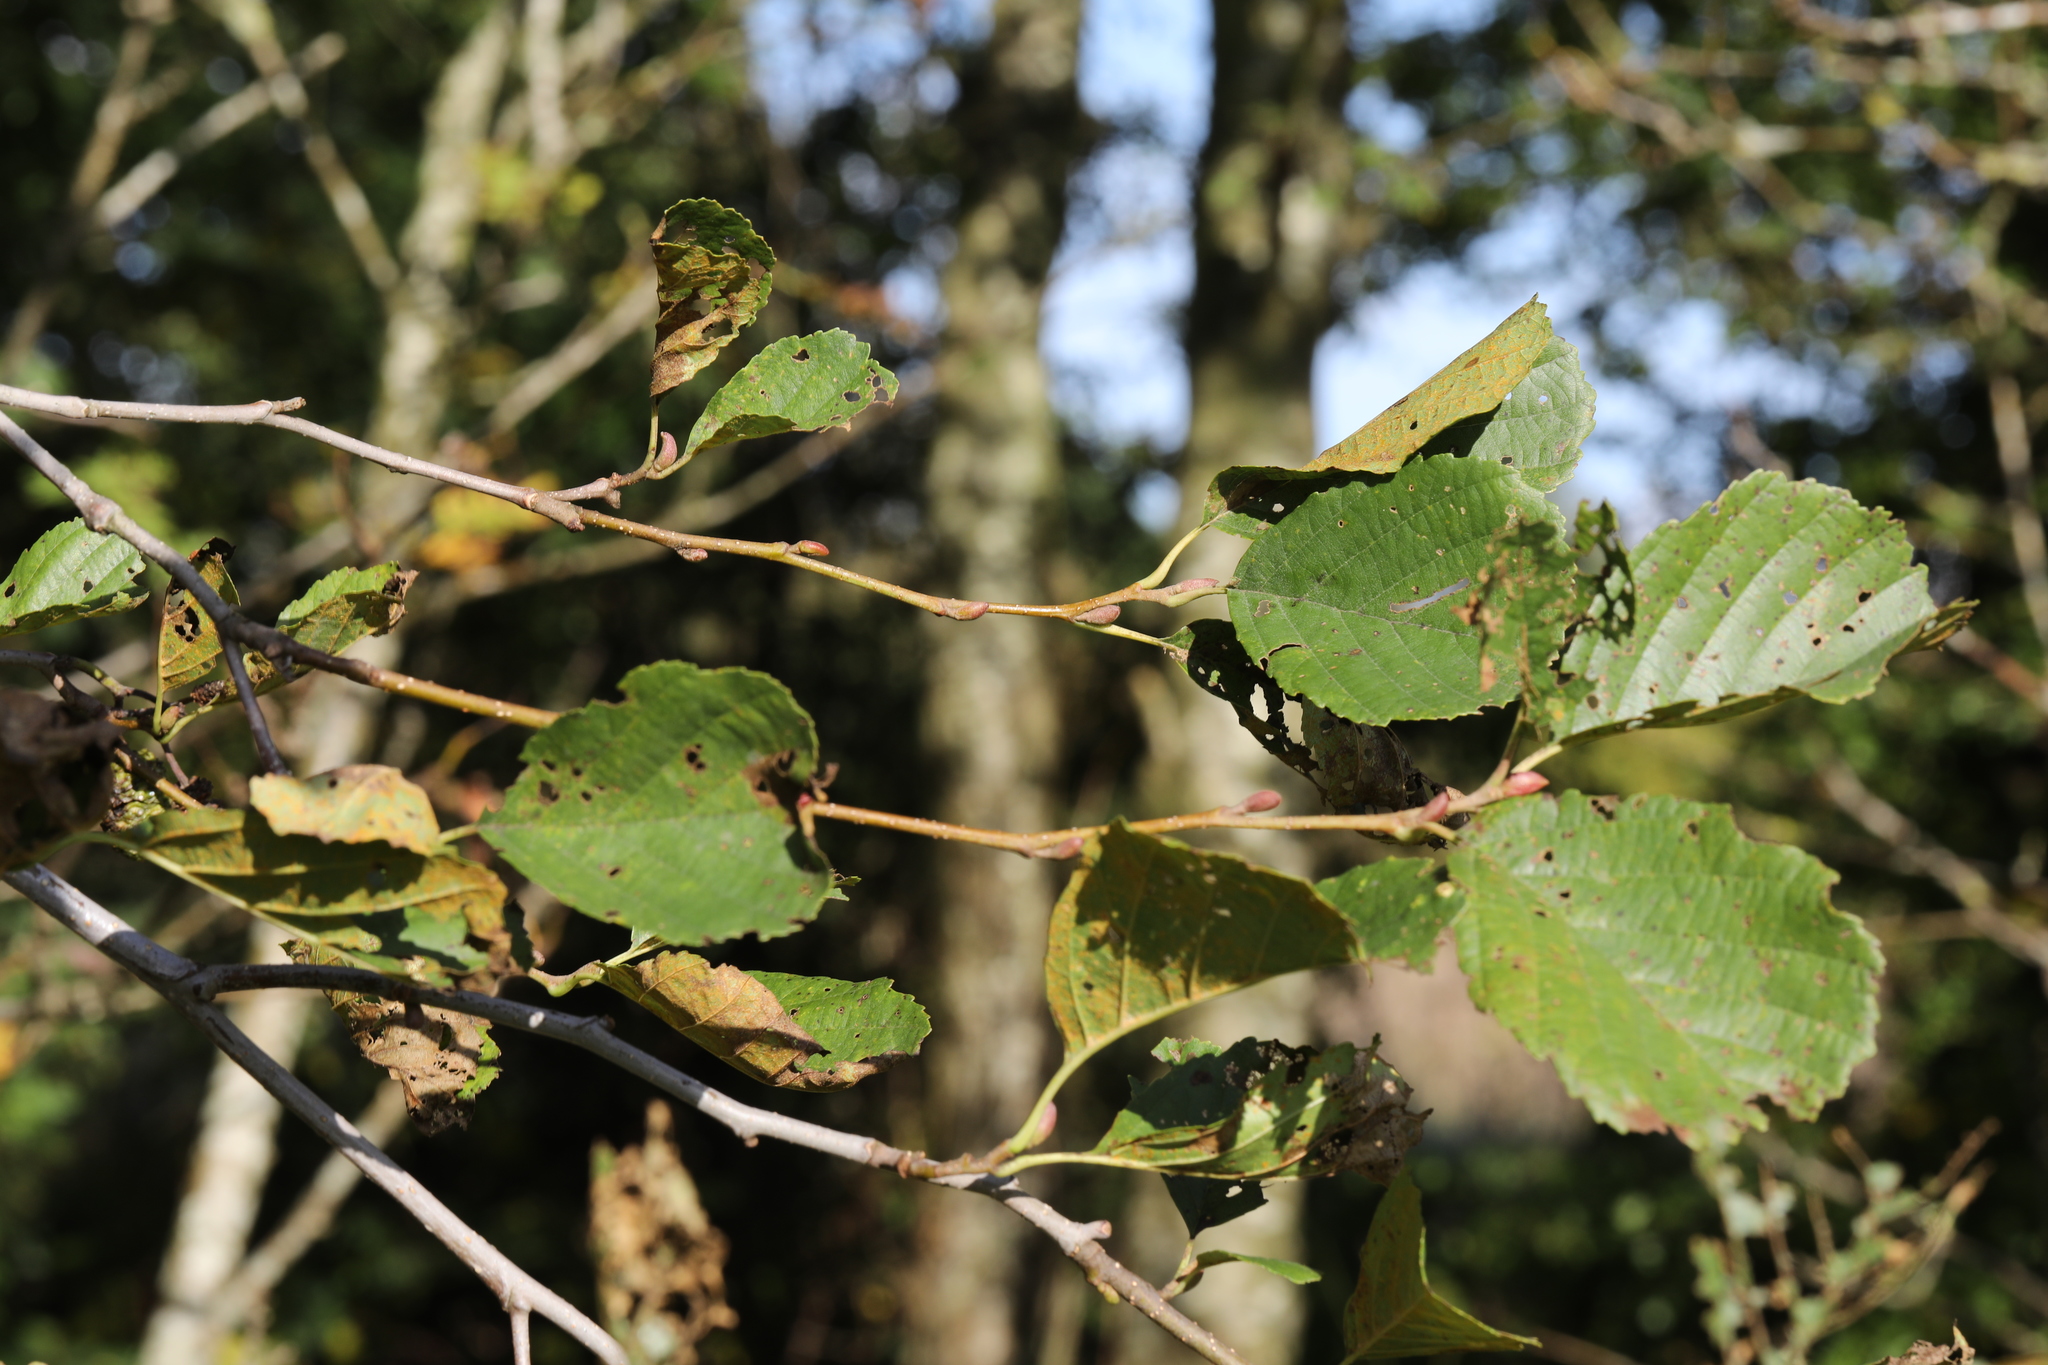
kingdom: Plantae
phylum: Tracheophyta
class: Magnoliopsida
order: Fagales
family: Betulaceae
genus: Alnus
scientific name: Alnus glutinosa
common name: Black alder
